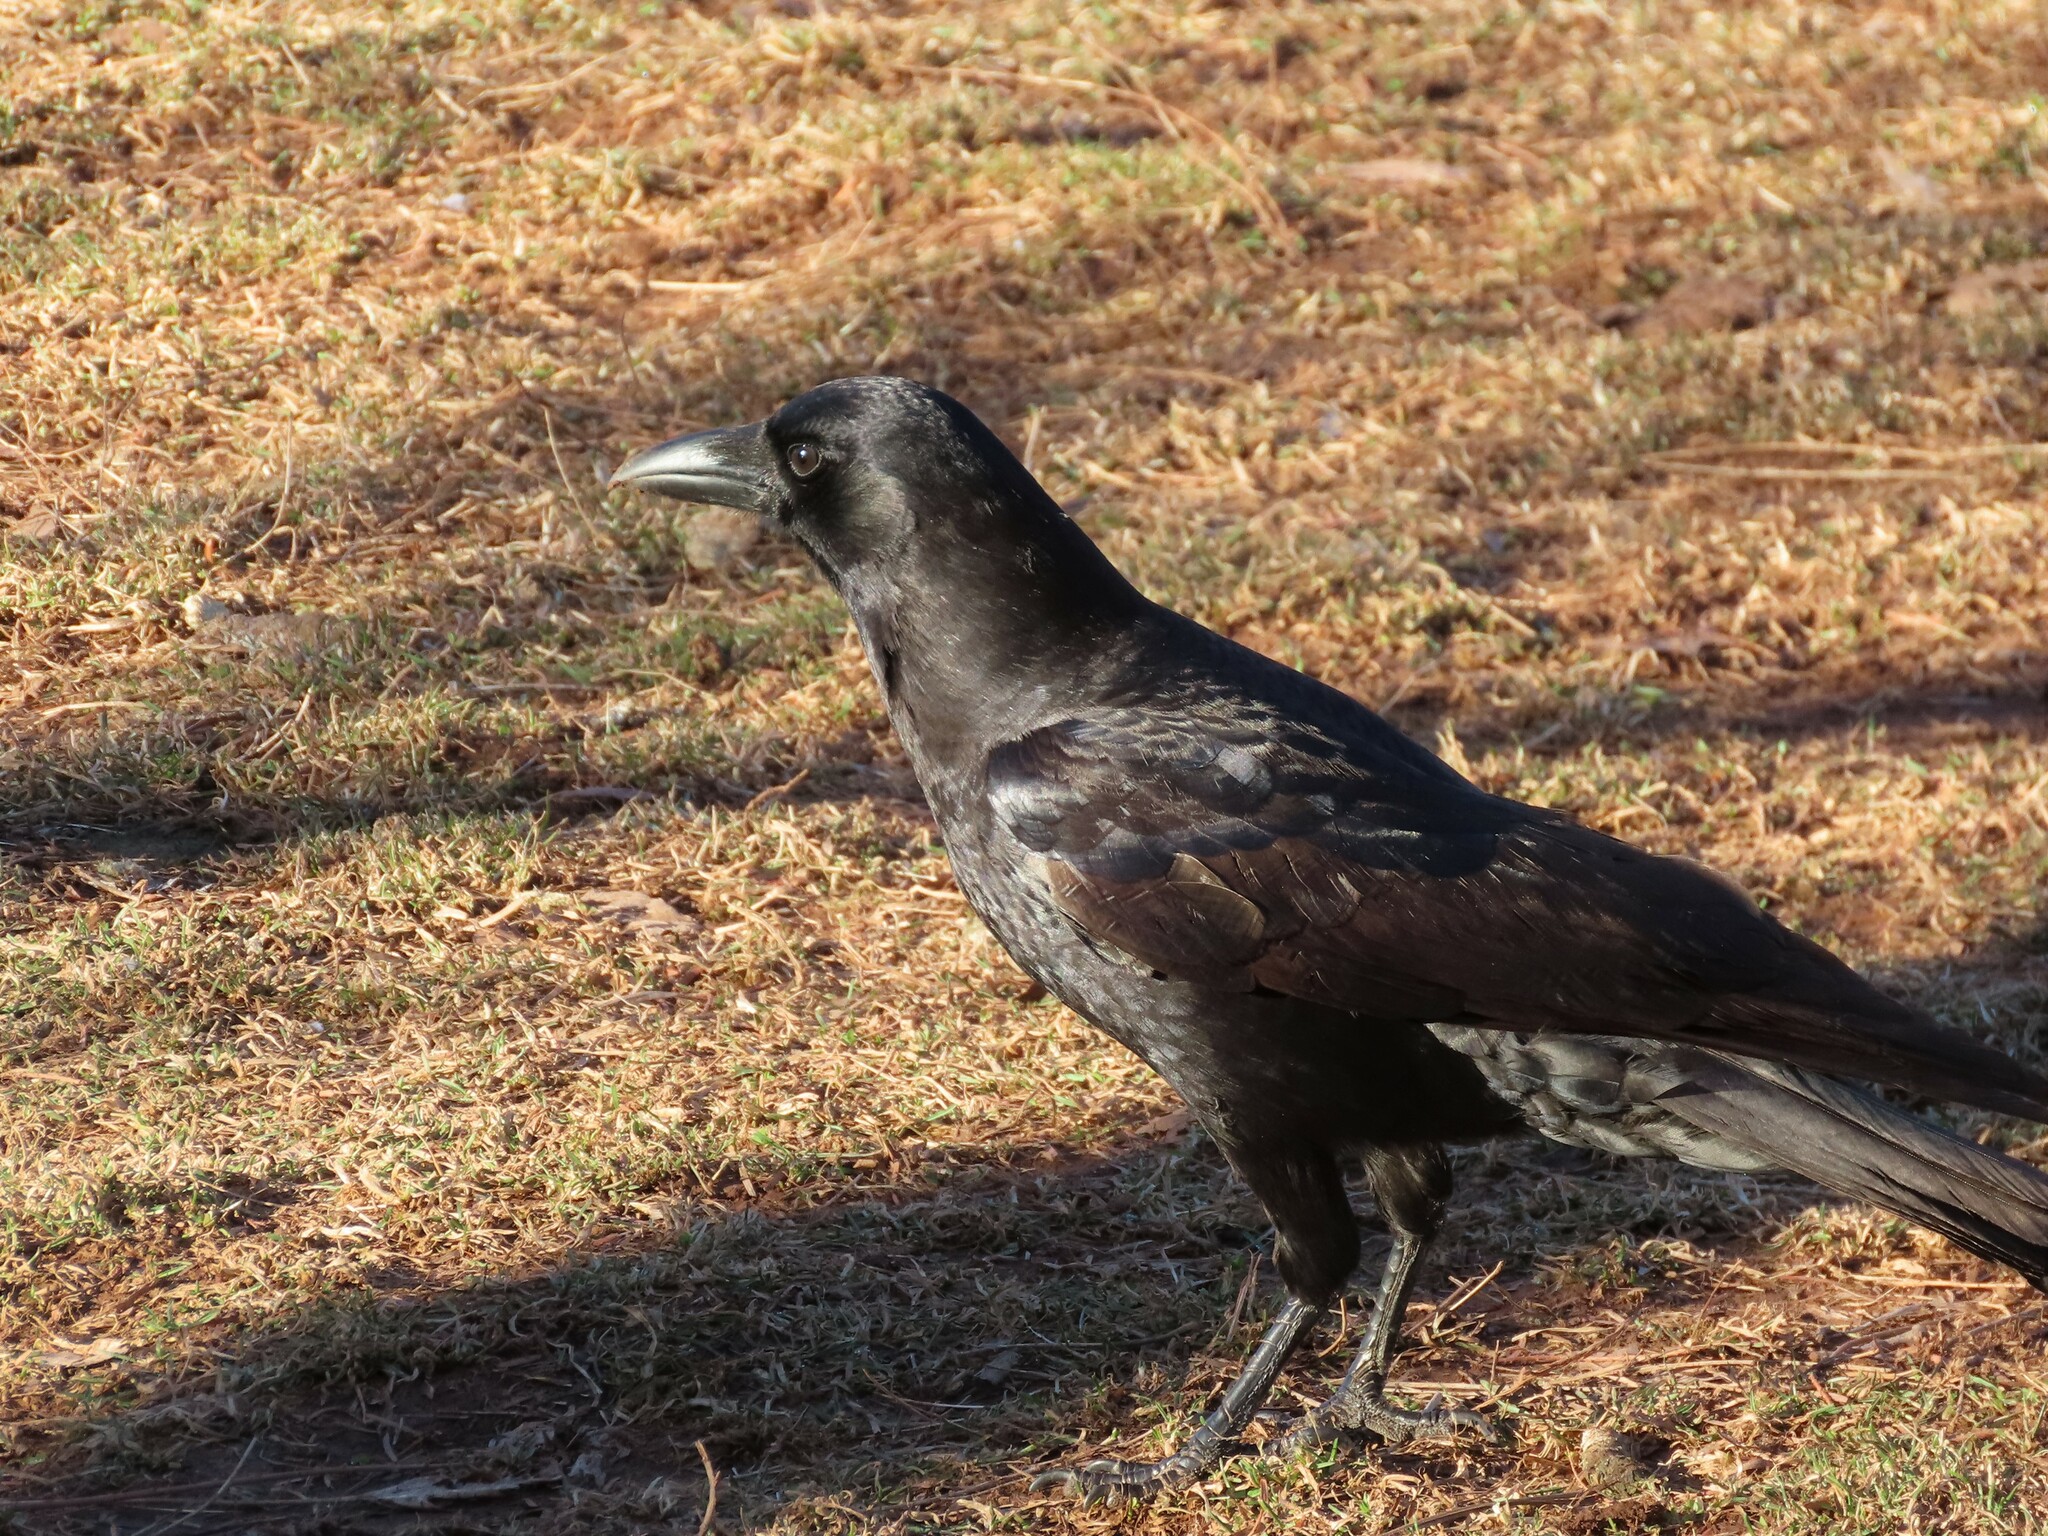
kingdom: Animalia
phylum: Chordata
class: Aves
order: Passeriformes
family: Corvidae
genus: Corvus
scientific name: Corvus brachyrhynchos
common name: American crow
